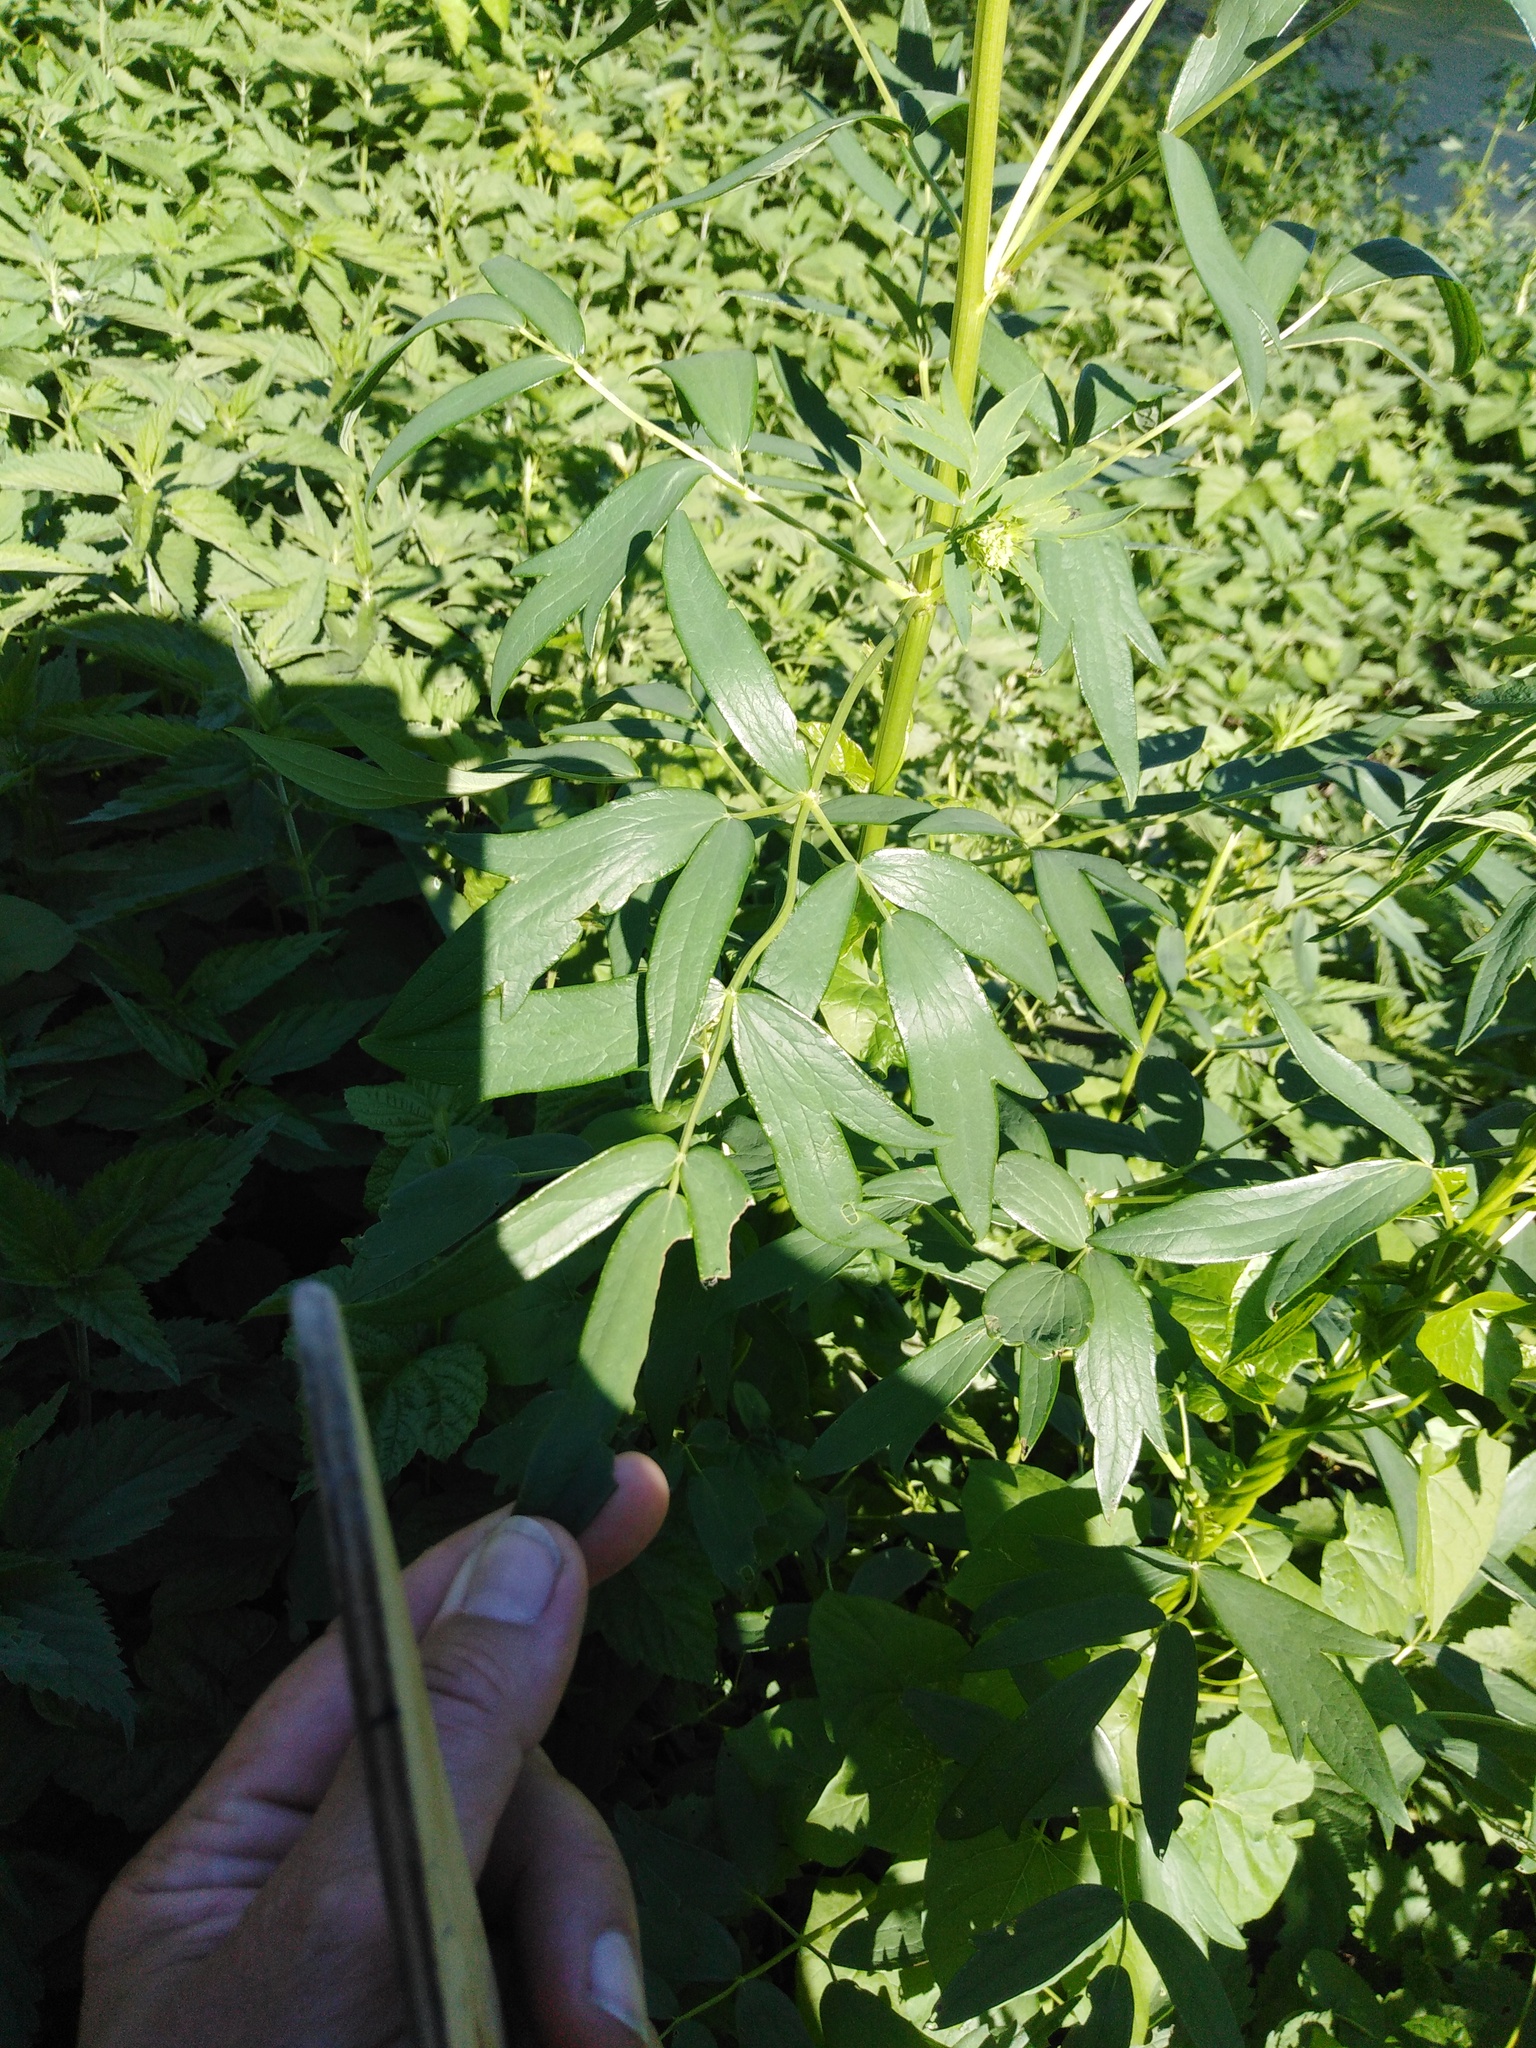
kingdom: Plantae
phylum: Tracheophyta
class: Magnoliopsida
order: Ranunculales
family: Ranunculaceae
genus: Thalictrum
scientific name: Thalictrum flavum
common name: Common meadow-rue
